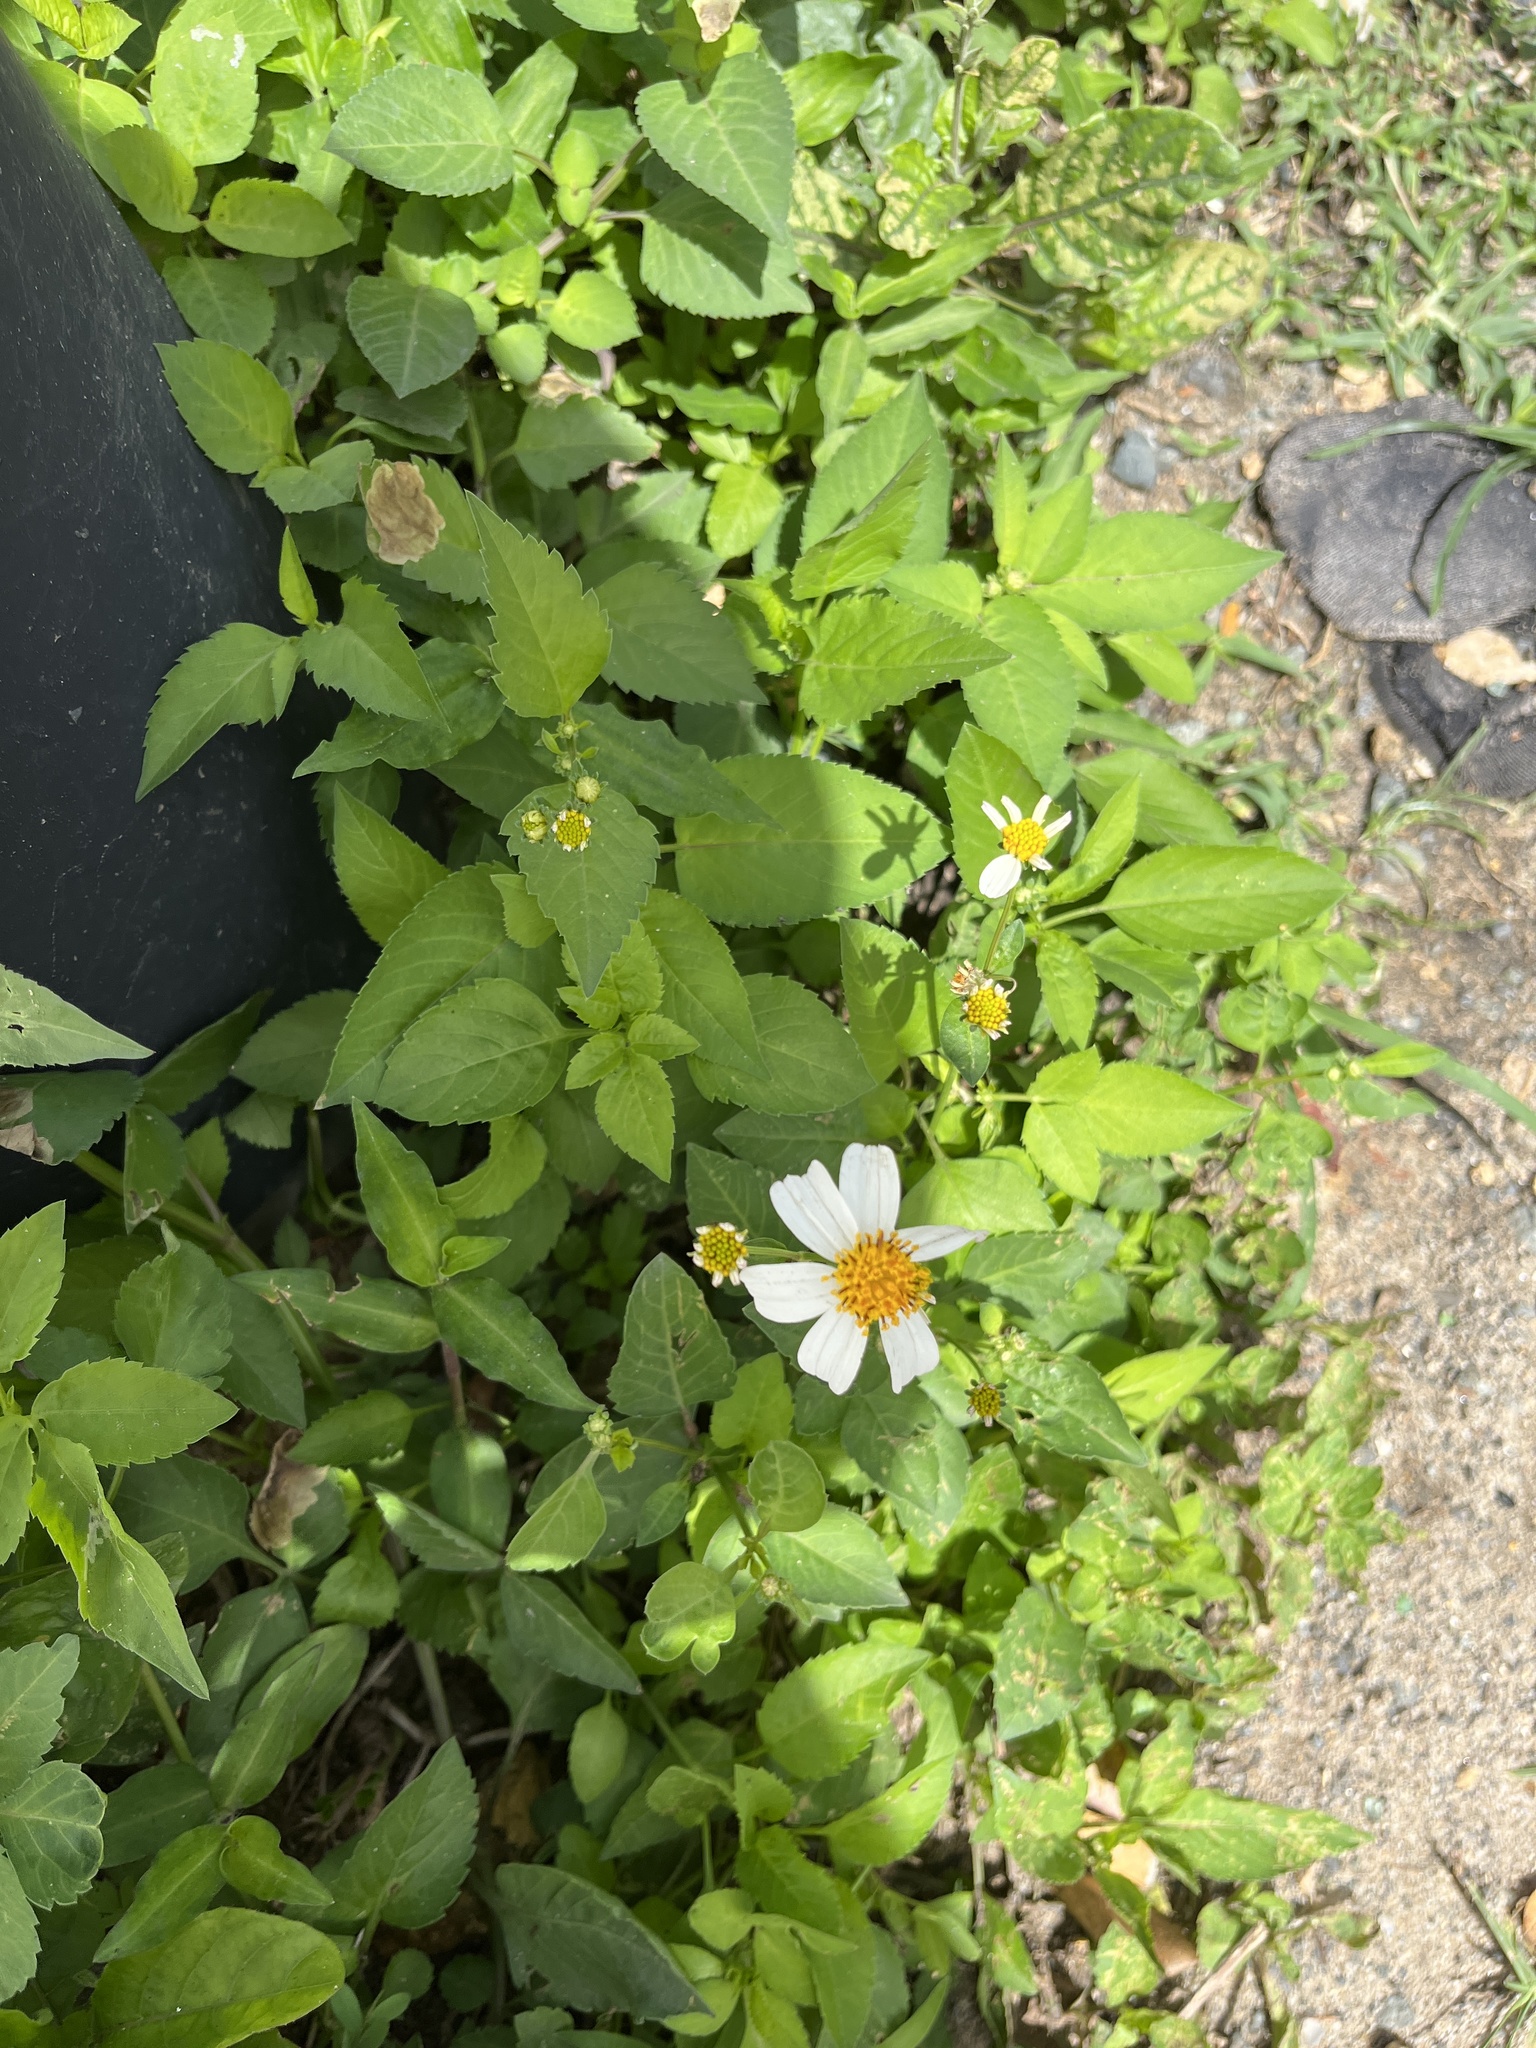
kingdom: Plantae
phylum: Tracheophyta
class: Magnoliopsida
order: Asterales
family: Asteraceae
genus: Bidens
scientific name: Bidens alba
